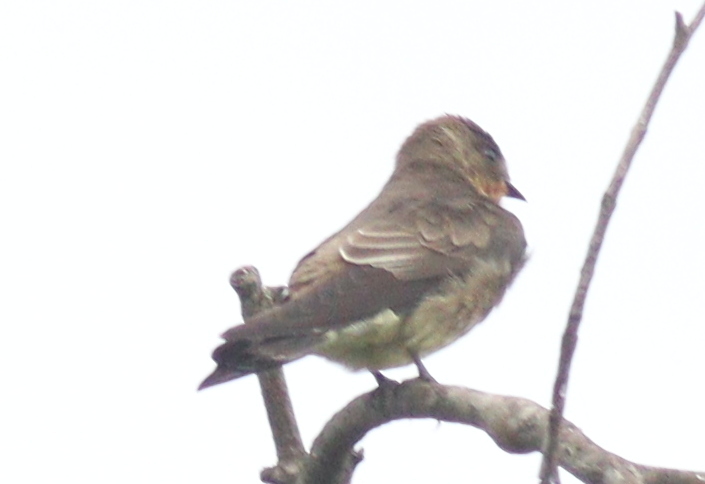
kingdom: Animalia
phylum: Chordata
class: Aves
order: Passeriformes
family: Hirundinidae
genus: Stelgidopteryx
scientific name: Stelgidopteryx ruficollis
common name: Southern rough-winged swallow
